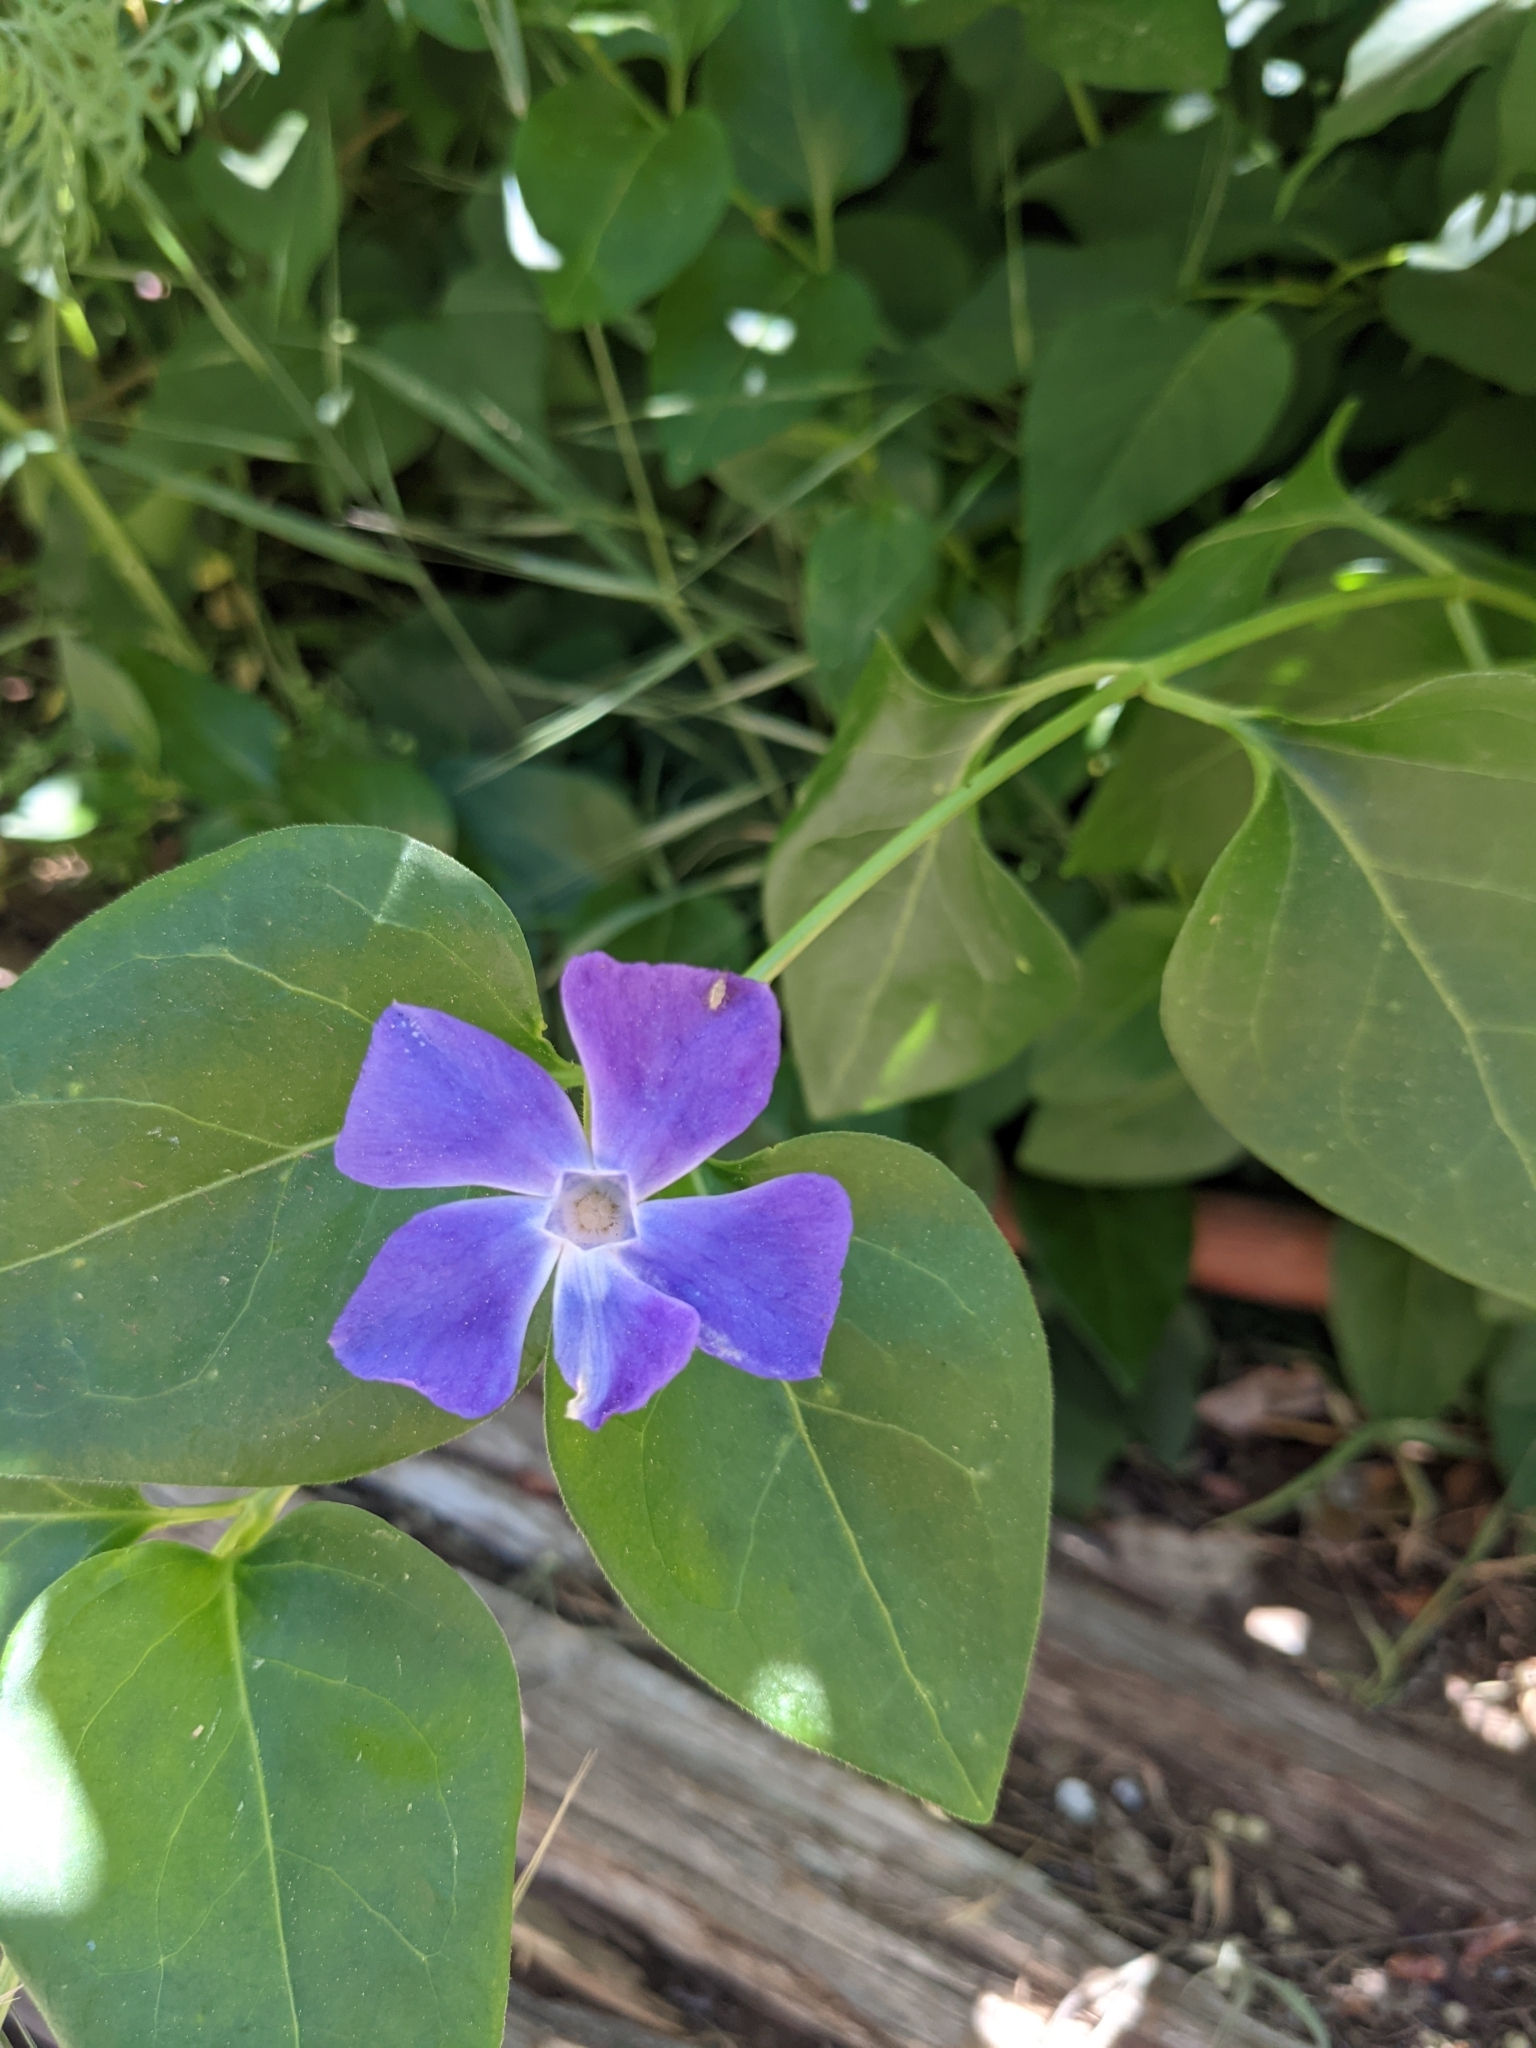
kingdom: Plantae
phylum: Tracheophyta
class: Magnoliopsida
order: Gentianales
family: Apocynaceae
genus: Vinca
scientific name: Vinca major
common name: Greater periwinkle
